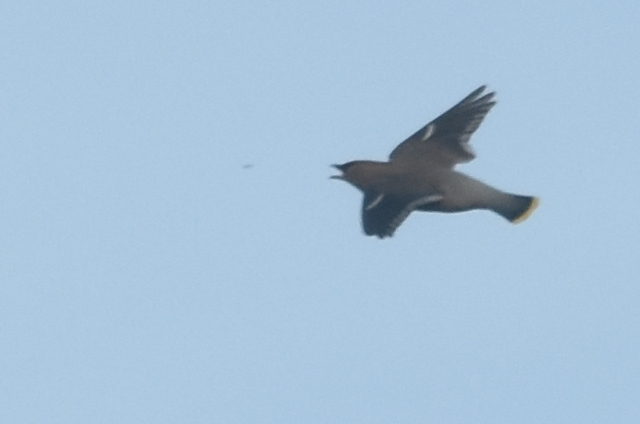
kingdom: Animalia
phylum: Chordata
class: Aves
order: Passeriformes
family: Bombycillidae
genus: Bombycilla
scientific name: Bombycilla garrulus
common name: Bohemian waxwing
